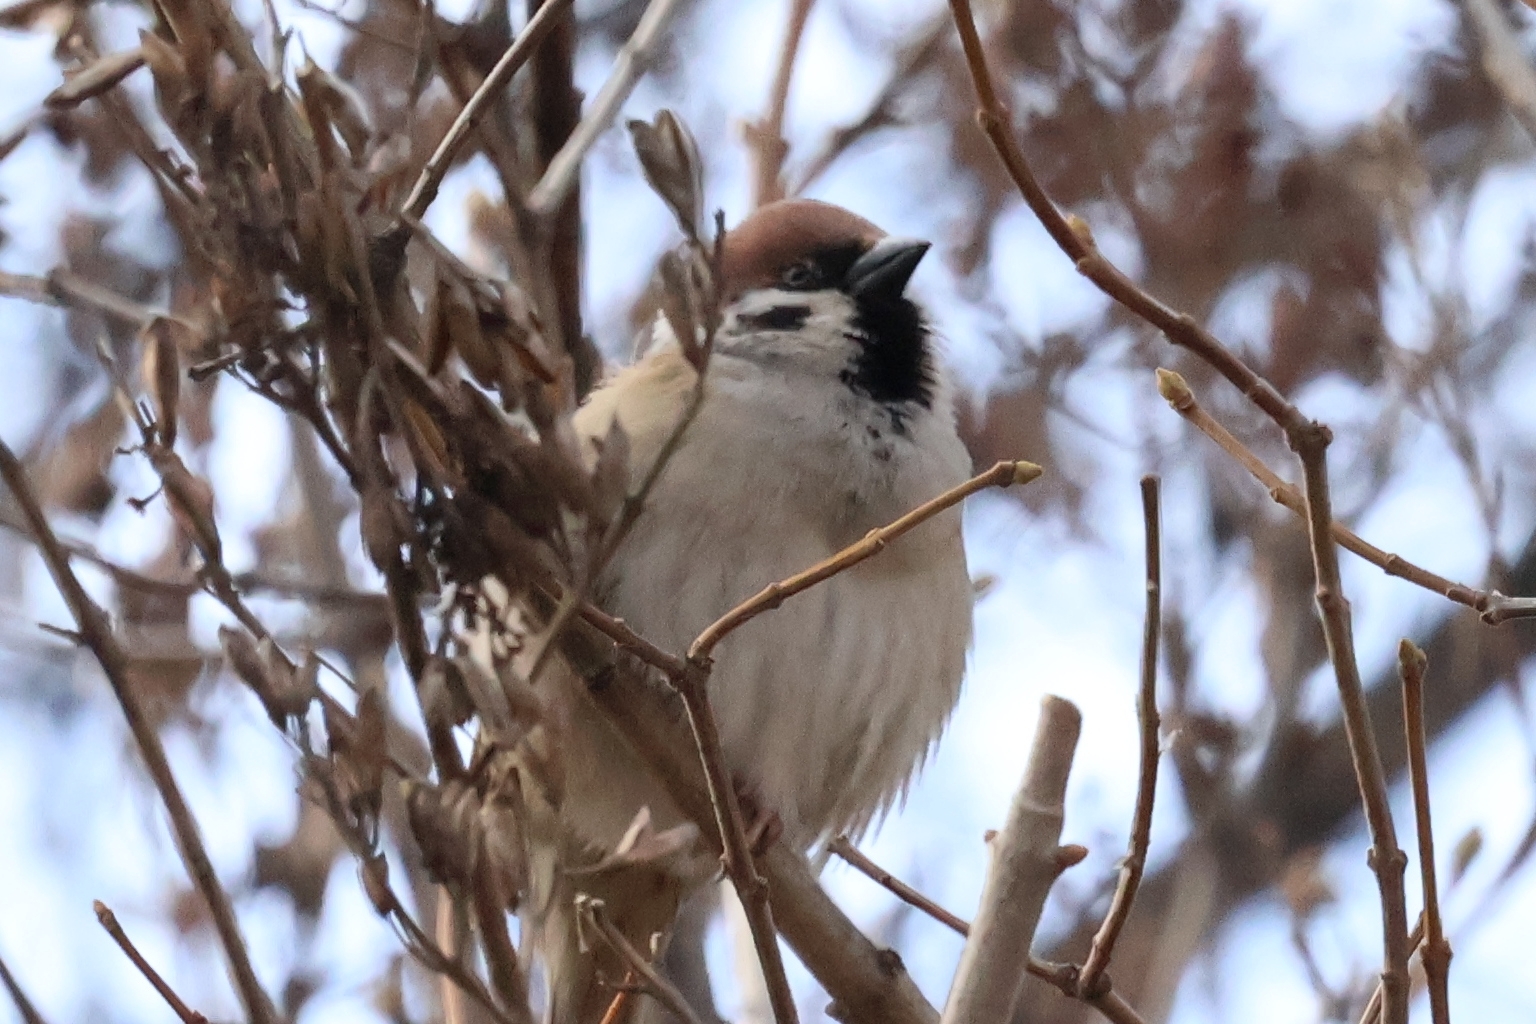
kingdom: Animalia
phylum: Chordata
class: Aves
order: Passeriformes
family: Passeridae
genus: Passer
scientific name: Passer montanus
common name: Eurasian tree sparrow
